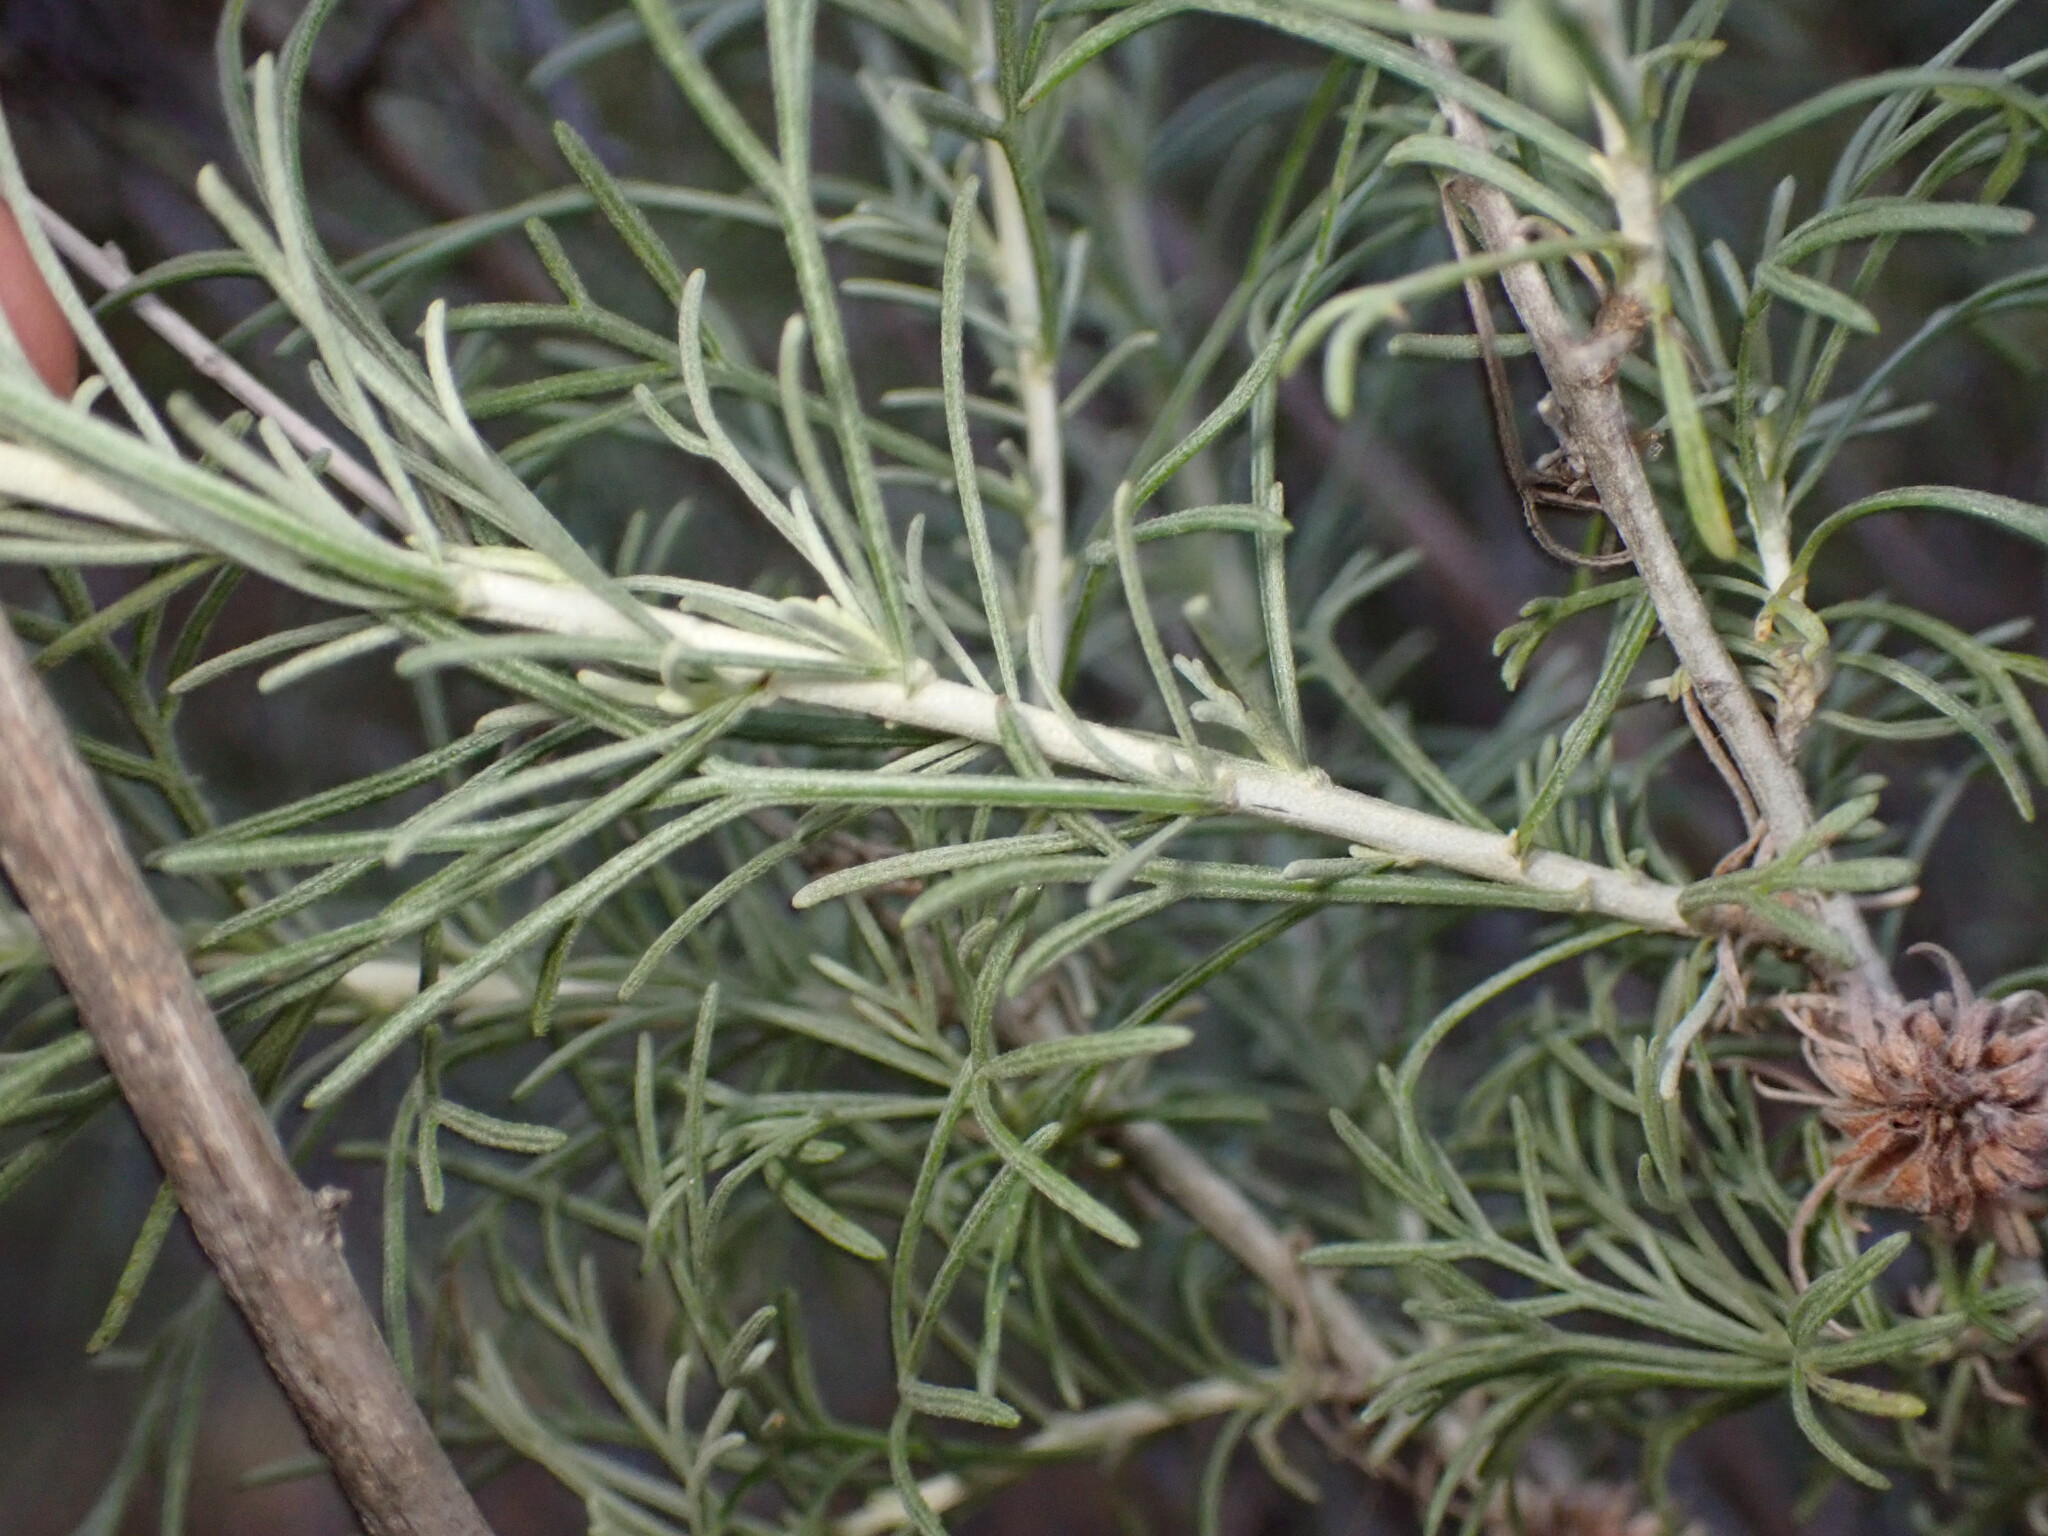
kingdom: Plantae
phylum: Tracheophyta
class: Magnoliopsida
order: Asterales
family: Asteraceae
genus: Artemisia
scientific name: Artemisia californica
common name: California sagebrush
